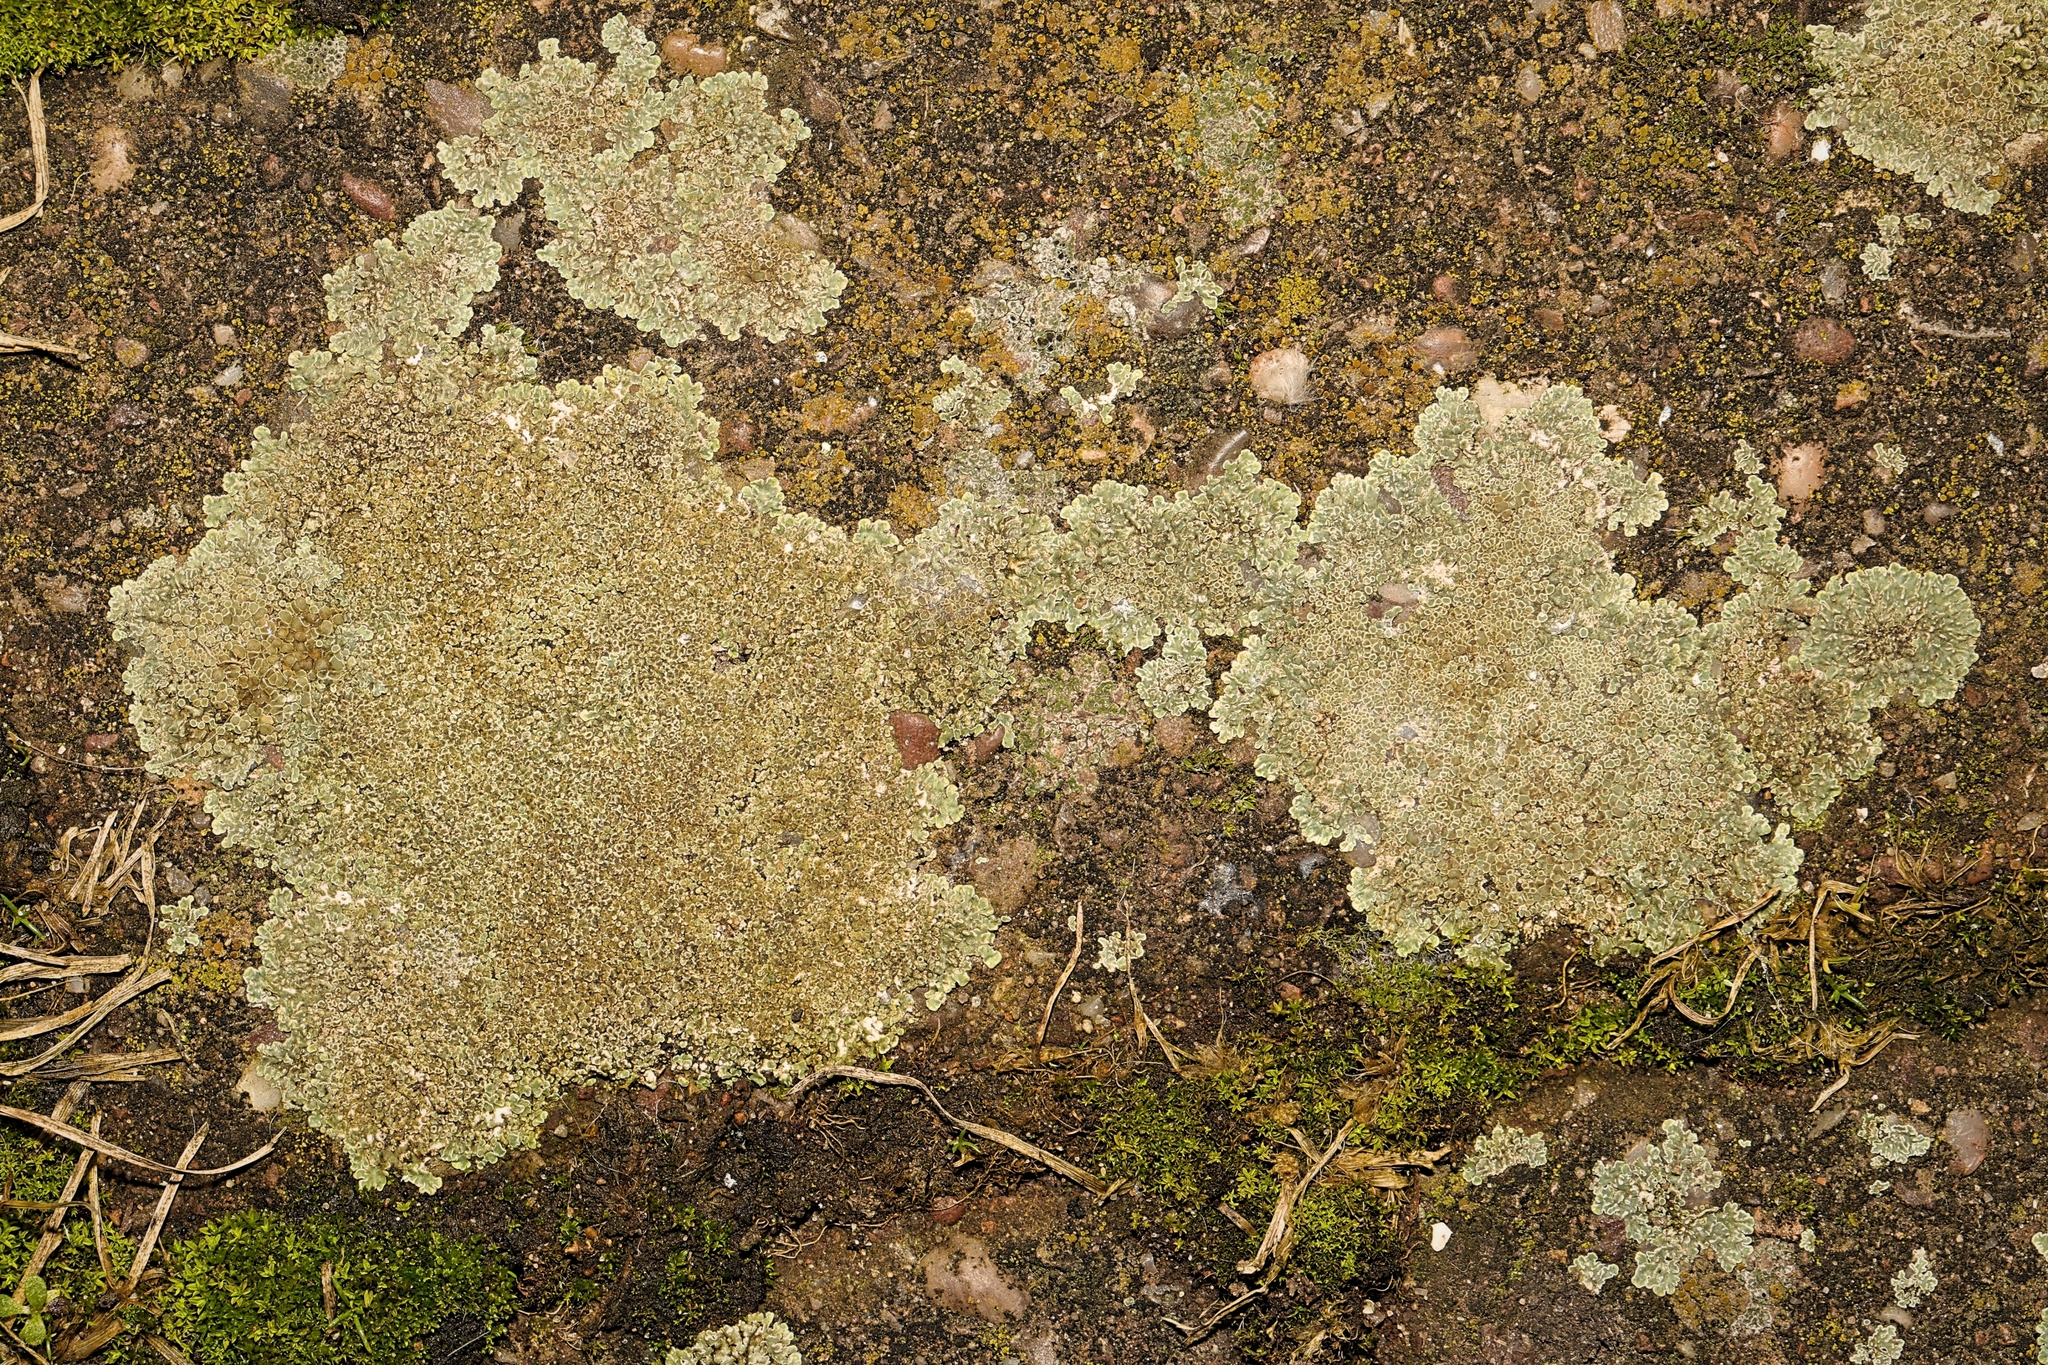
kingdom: Fungi
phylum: Ascomycota
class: Lecanoromycetes
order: Lecanorales
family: Lecanoraceae
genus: Protoparmeliopsis
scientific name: Protoparmeliopsis muralis
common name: Stonewall rim lichen
